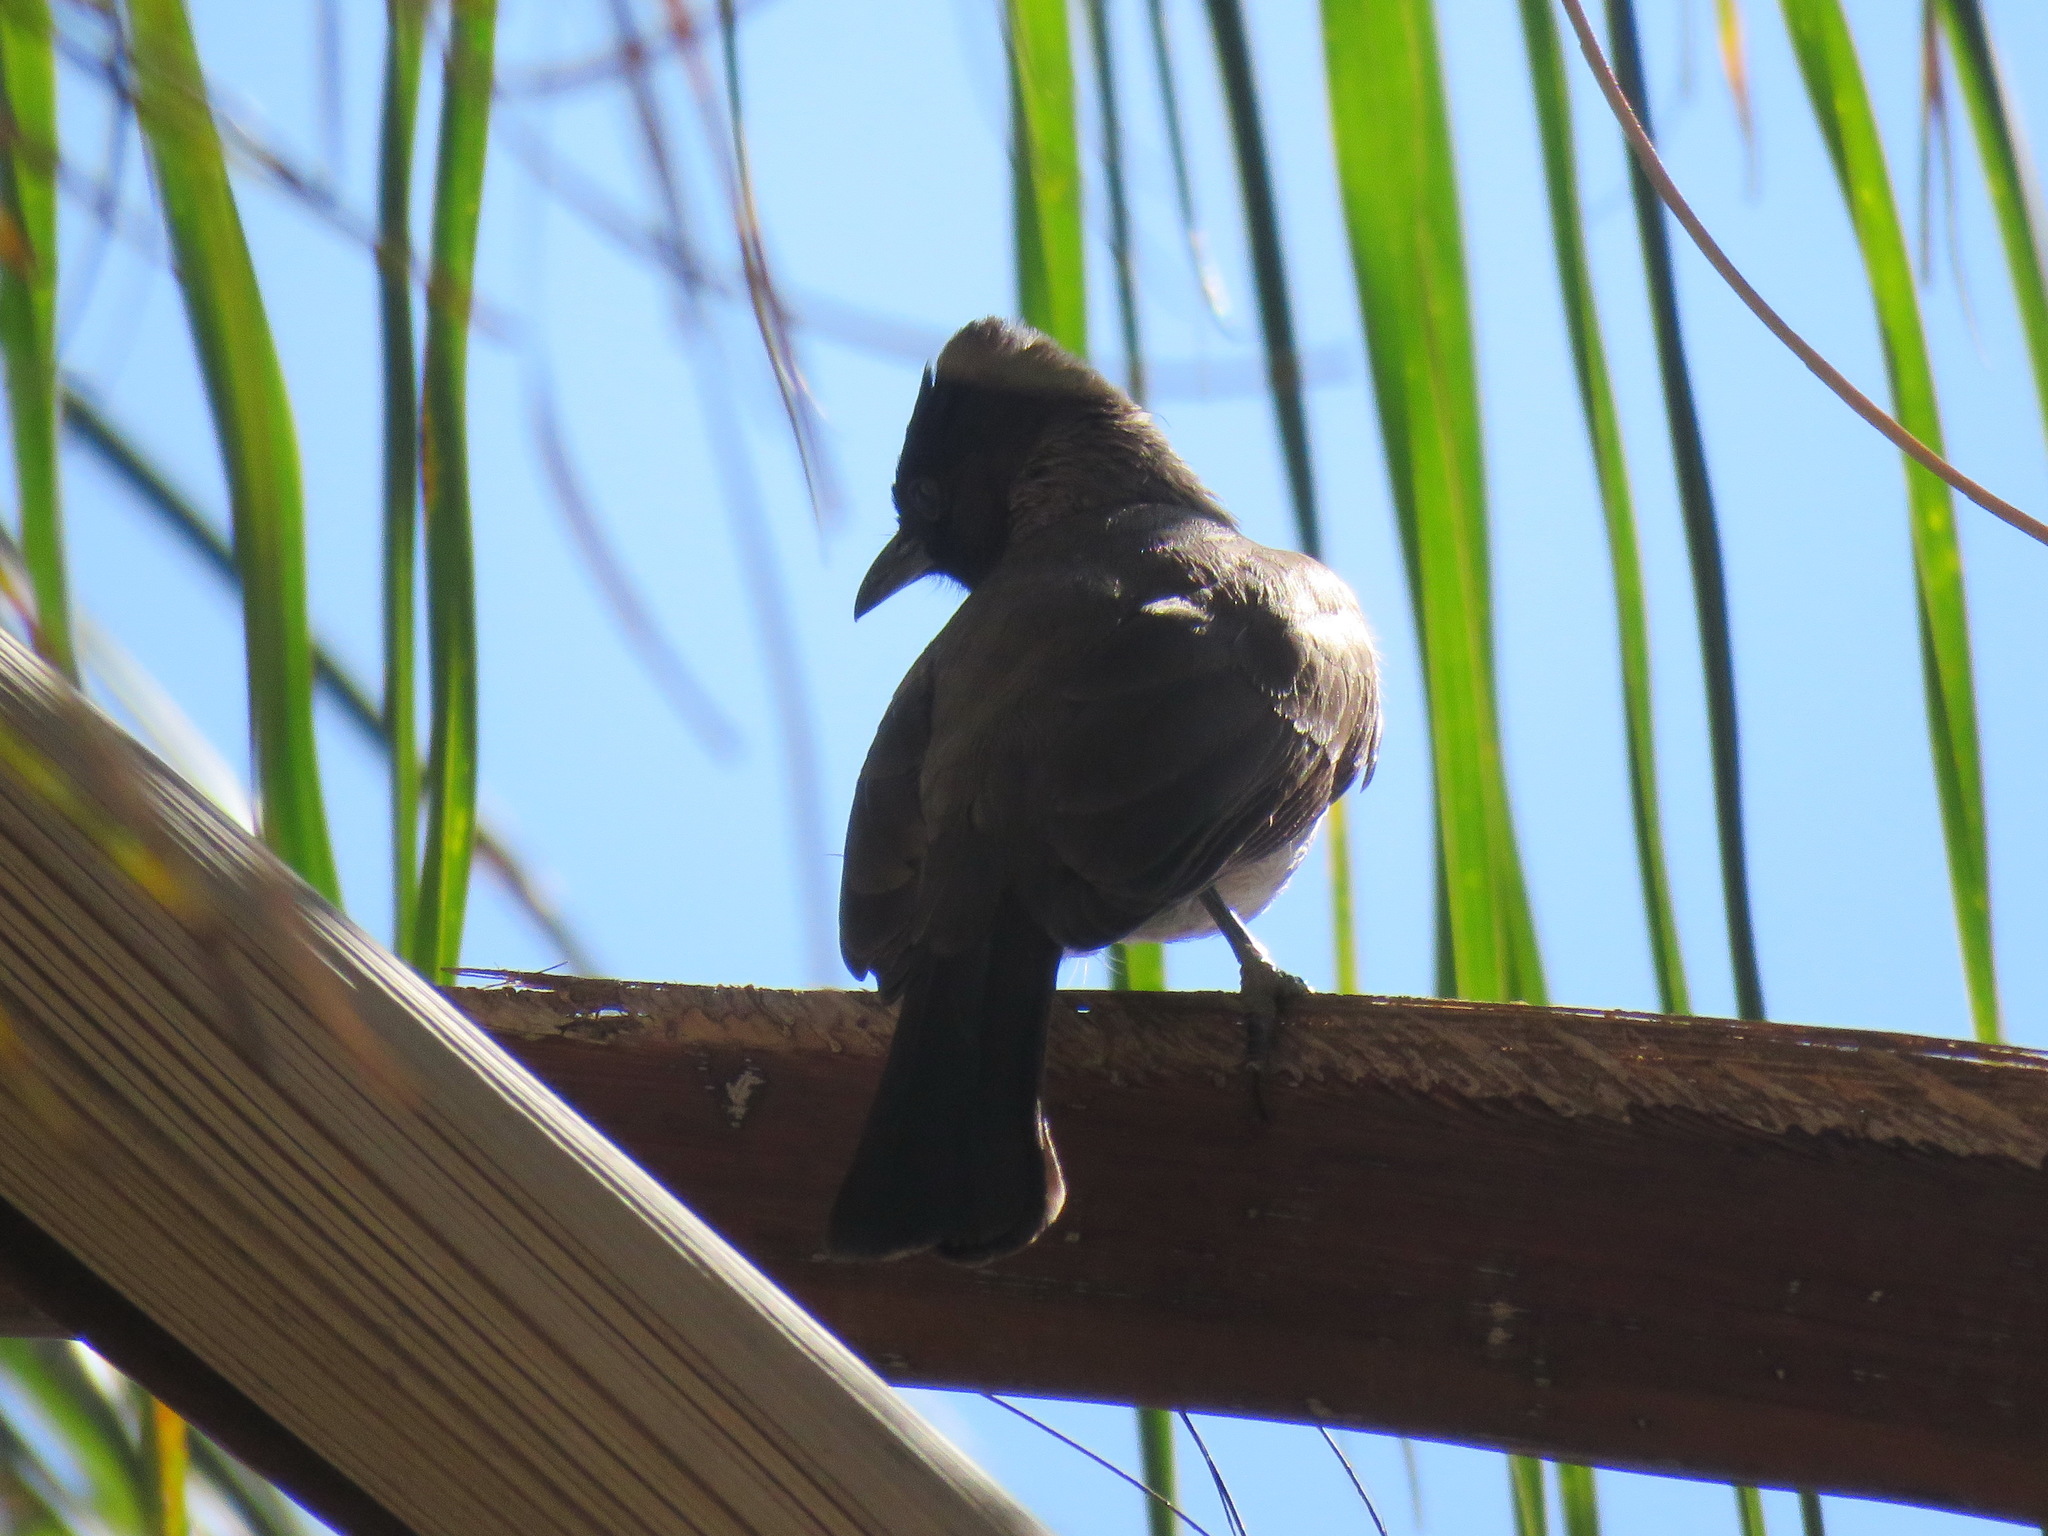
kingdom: Animalia
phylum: Chordata
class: Aves
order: Passeriformes
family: Pycnonotidae
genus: Pycnonotus
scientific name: Pycnonotus barbatus
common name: Common bulbul
